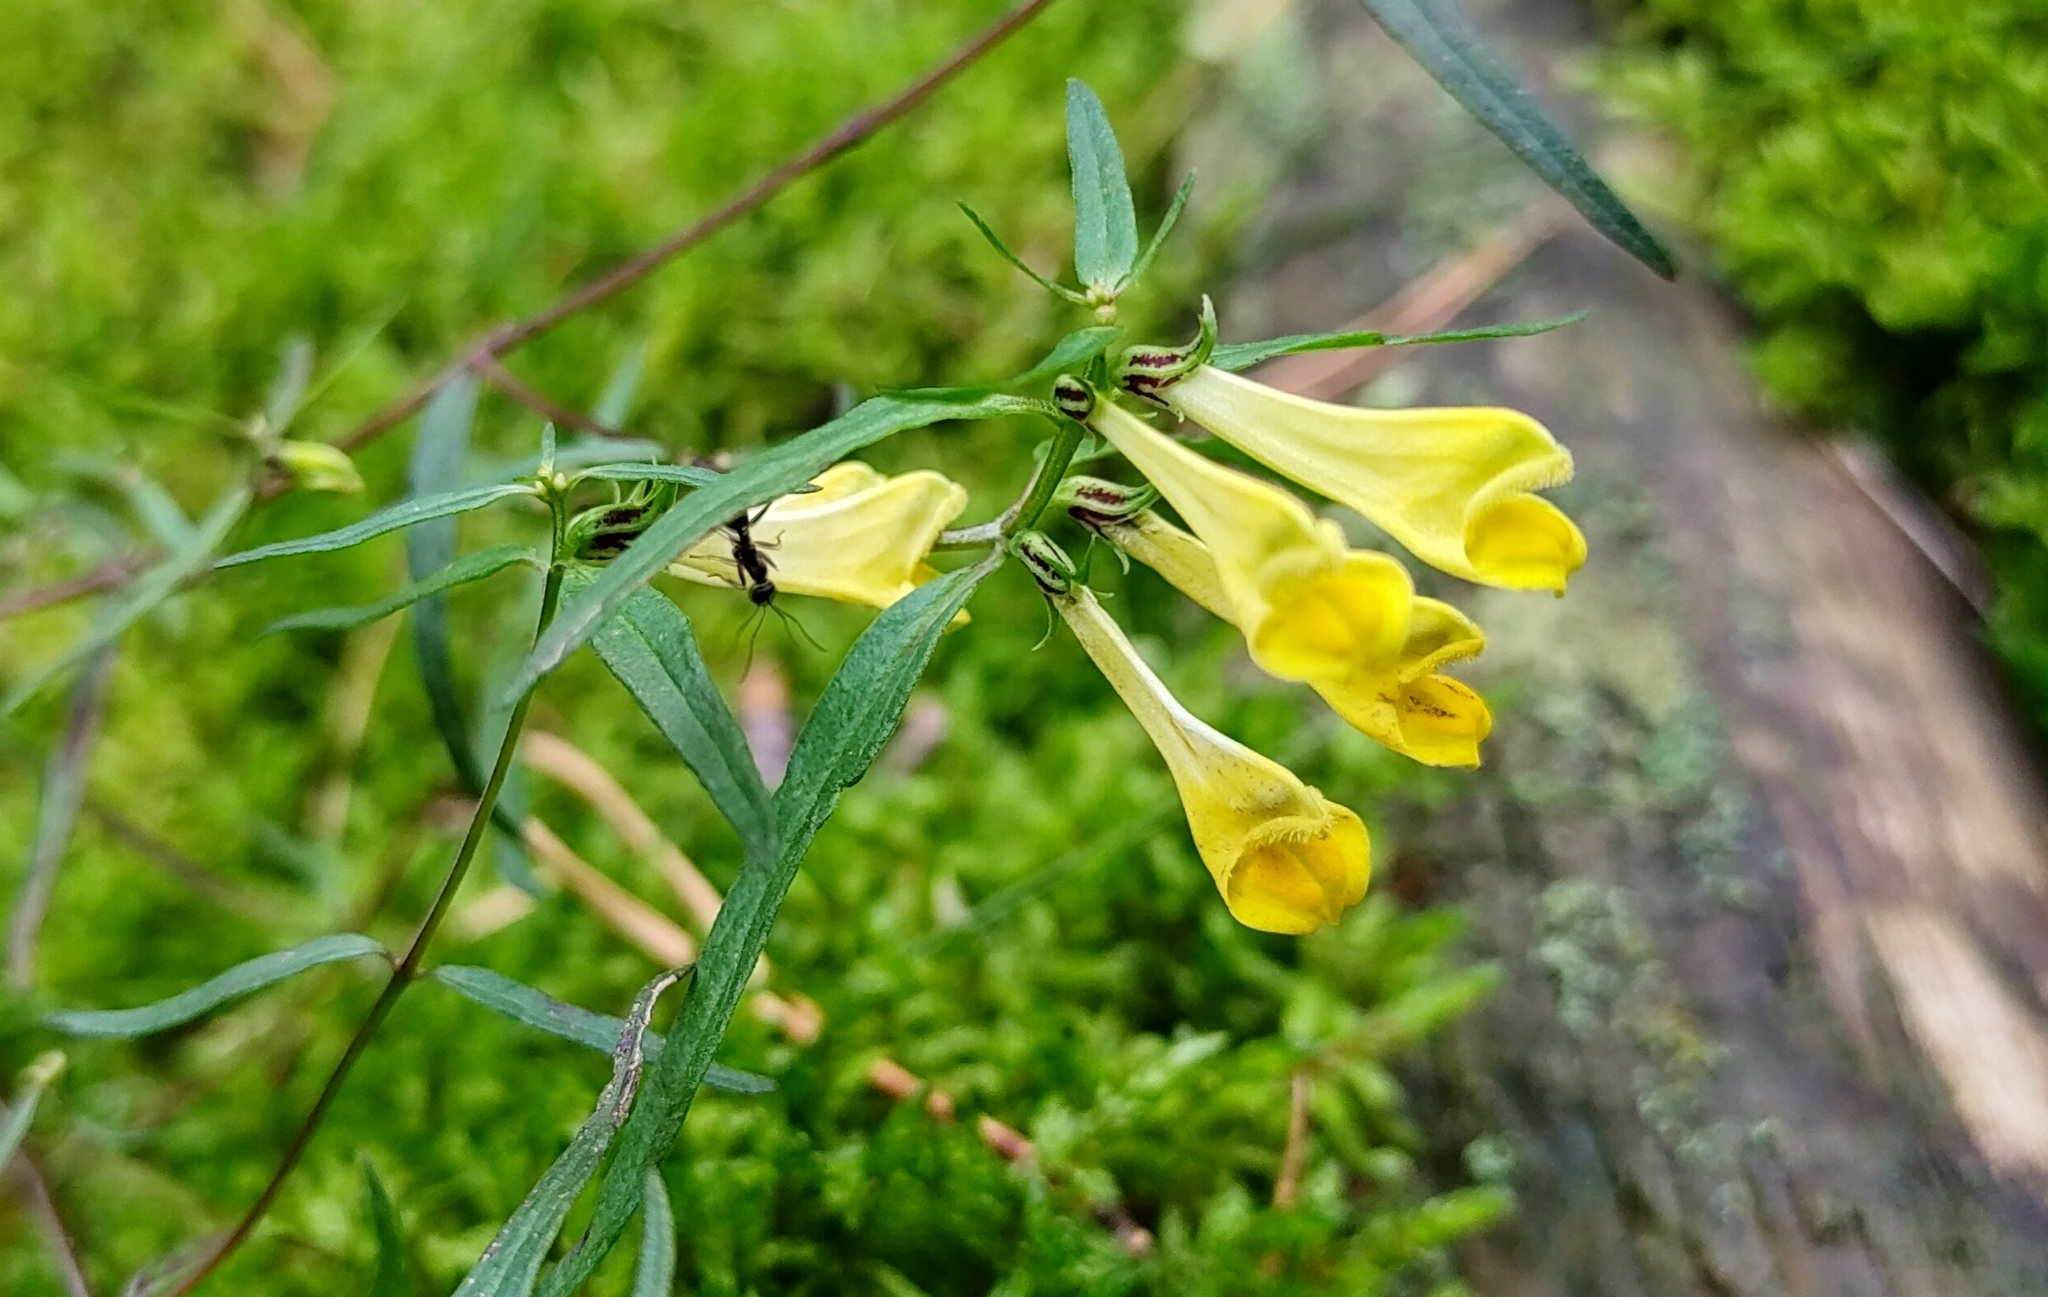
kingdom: Plantae
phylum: Tracheophyta
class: Magnoliopsida
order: Lamiales
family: Orobanchaceae
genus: Melampyrum
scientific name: Melampyrum pratense
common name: Common cow-wheat
